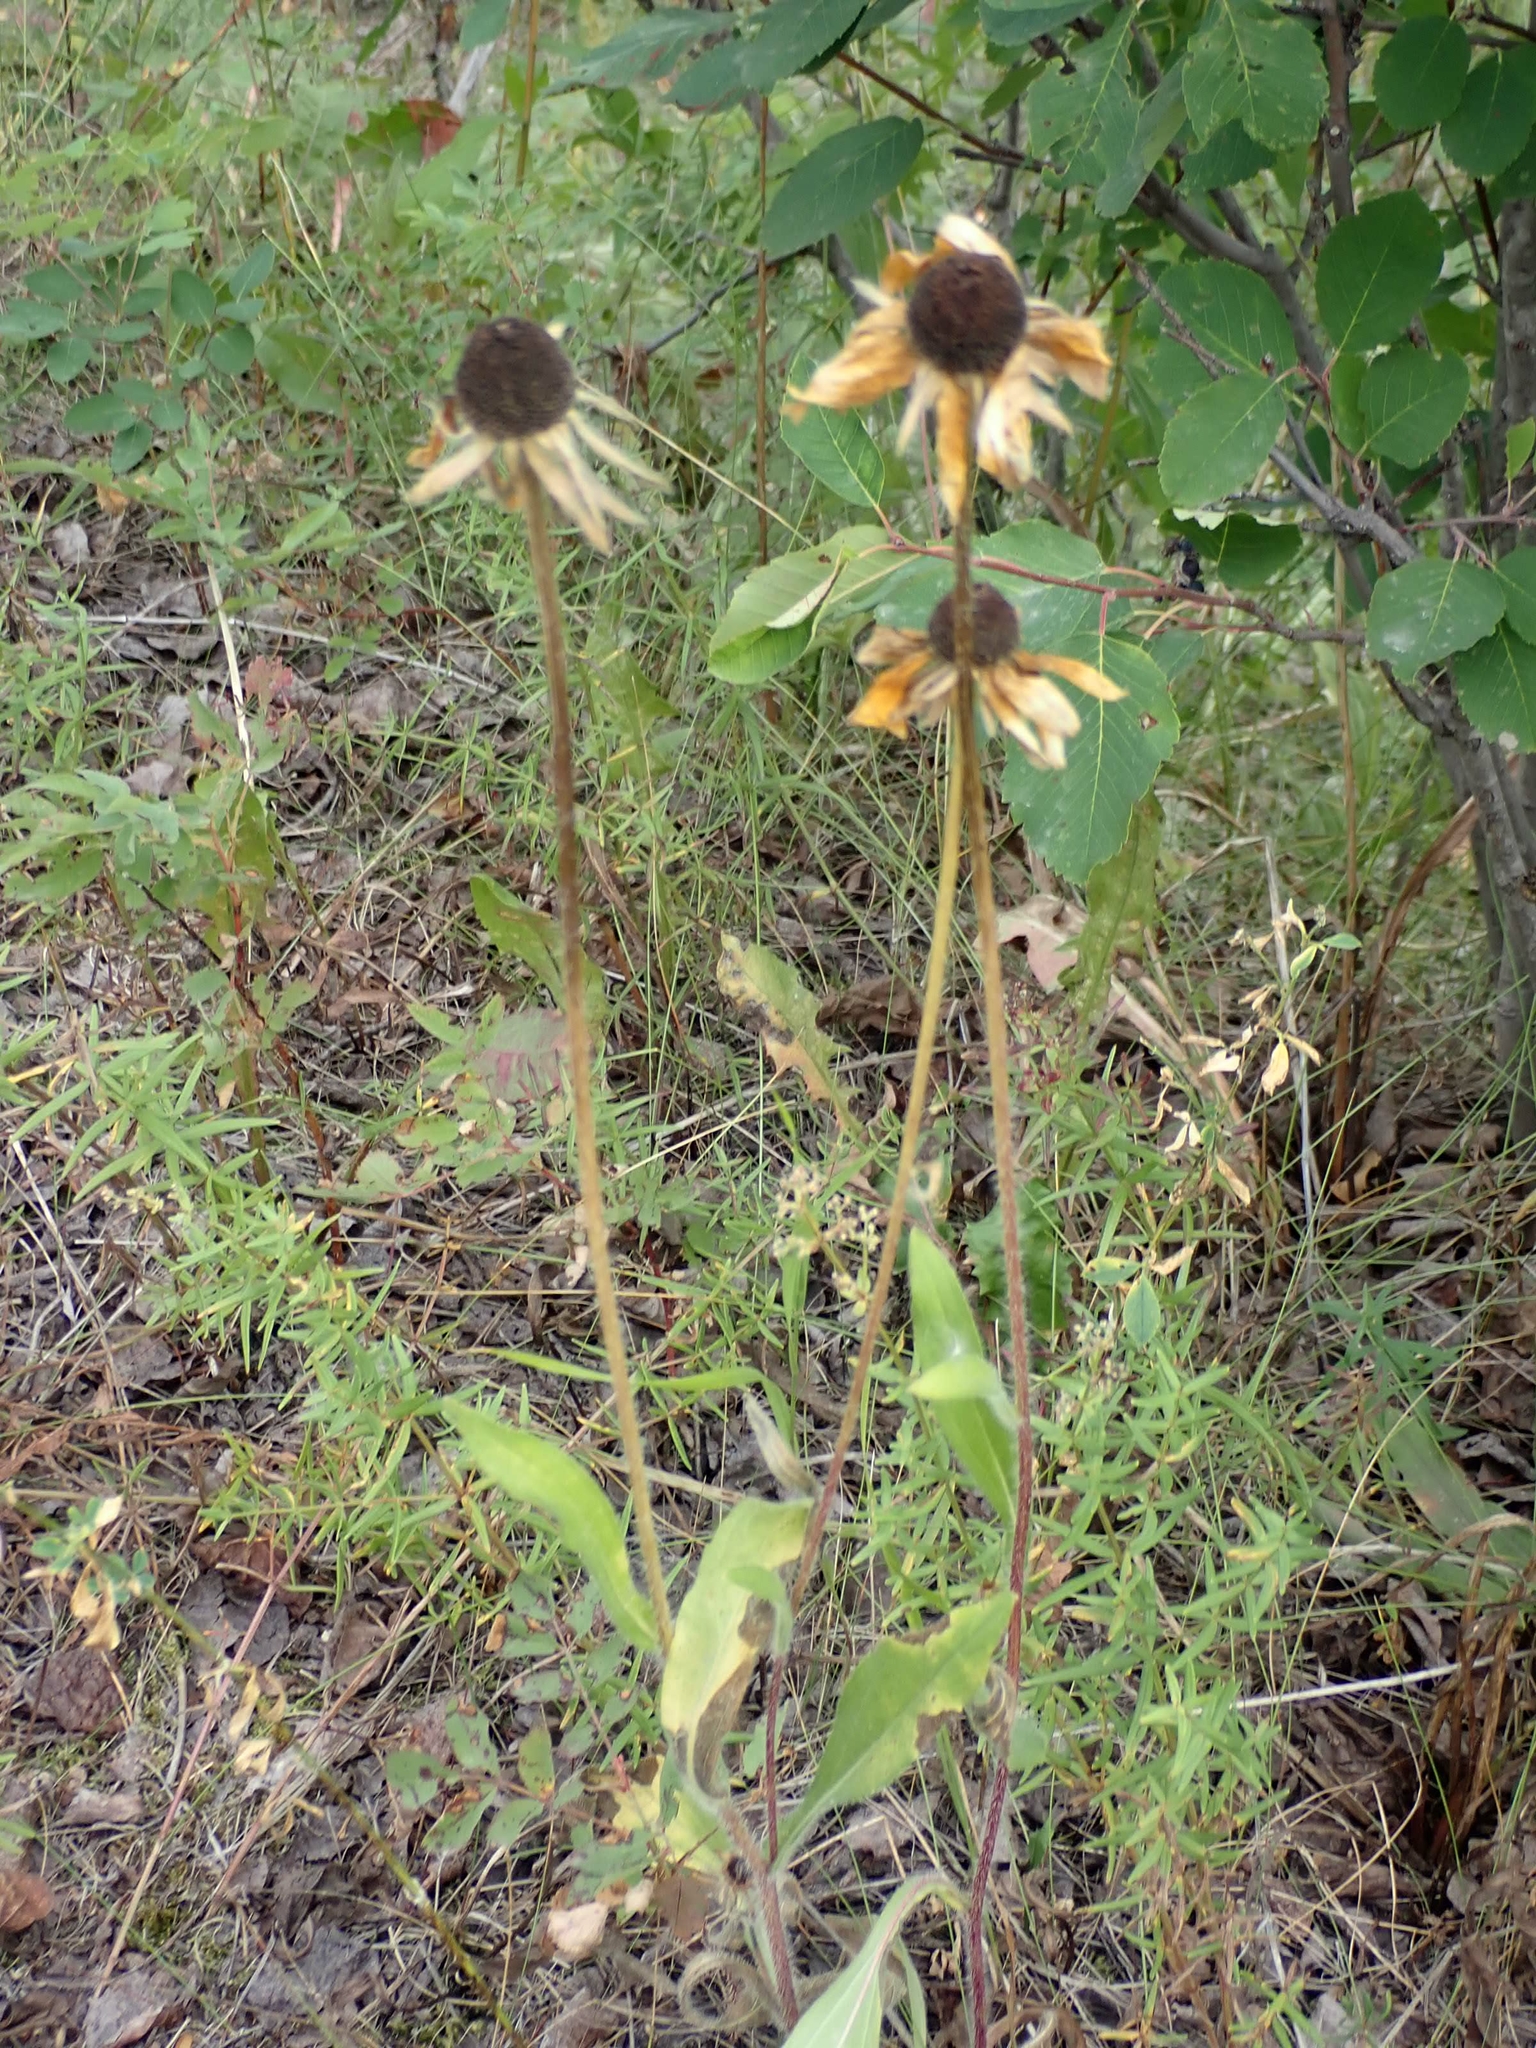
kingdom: Plantae
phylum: Tracheophyta
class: Magnoliopsida
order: Asterales
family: Asteraceae
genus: Rudbeckia
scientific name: Rudbeckia hirta
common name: Black-eyed-susan
